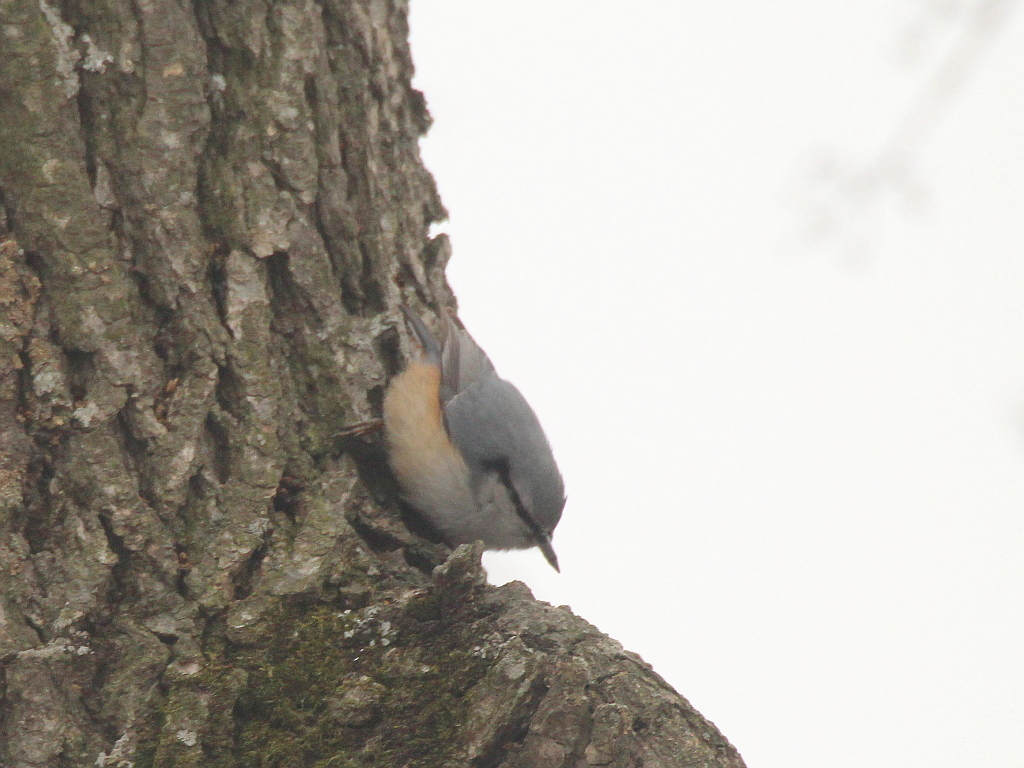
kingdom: Animalia
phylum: Chordata
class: Aves
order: Passeriformes
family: Sittidae
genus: Sitta
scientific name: Sitta europaea
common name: Eurasian nuthatch
